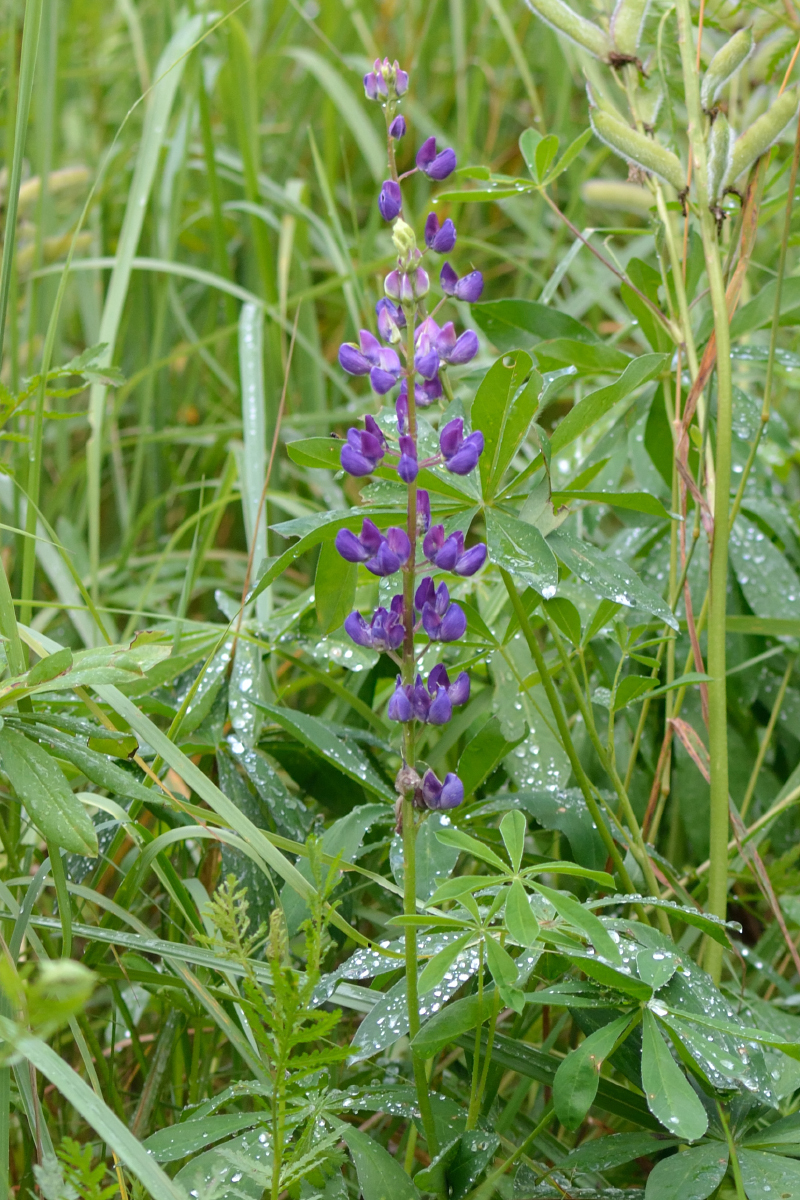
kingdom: Plantae
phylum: Tracheophyta
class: Magnoliopsida
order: Fabales
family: Fabaceae
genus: Lupinus
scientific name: Lupinus polyphyllus
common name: Garden lupin
